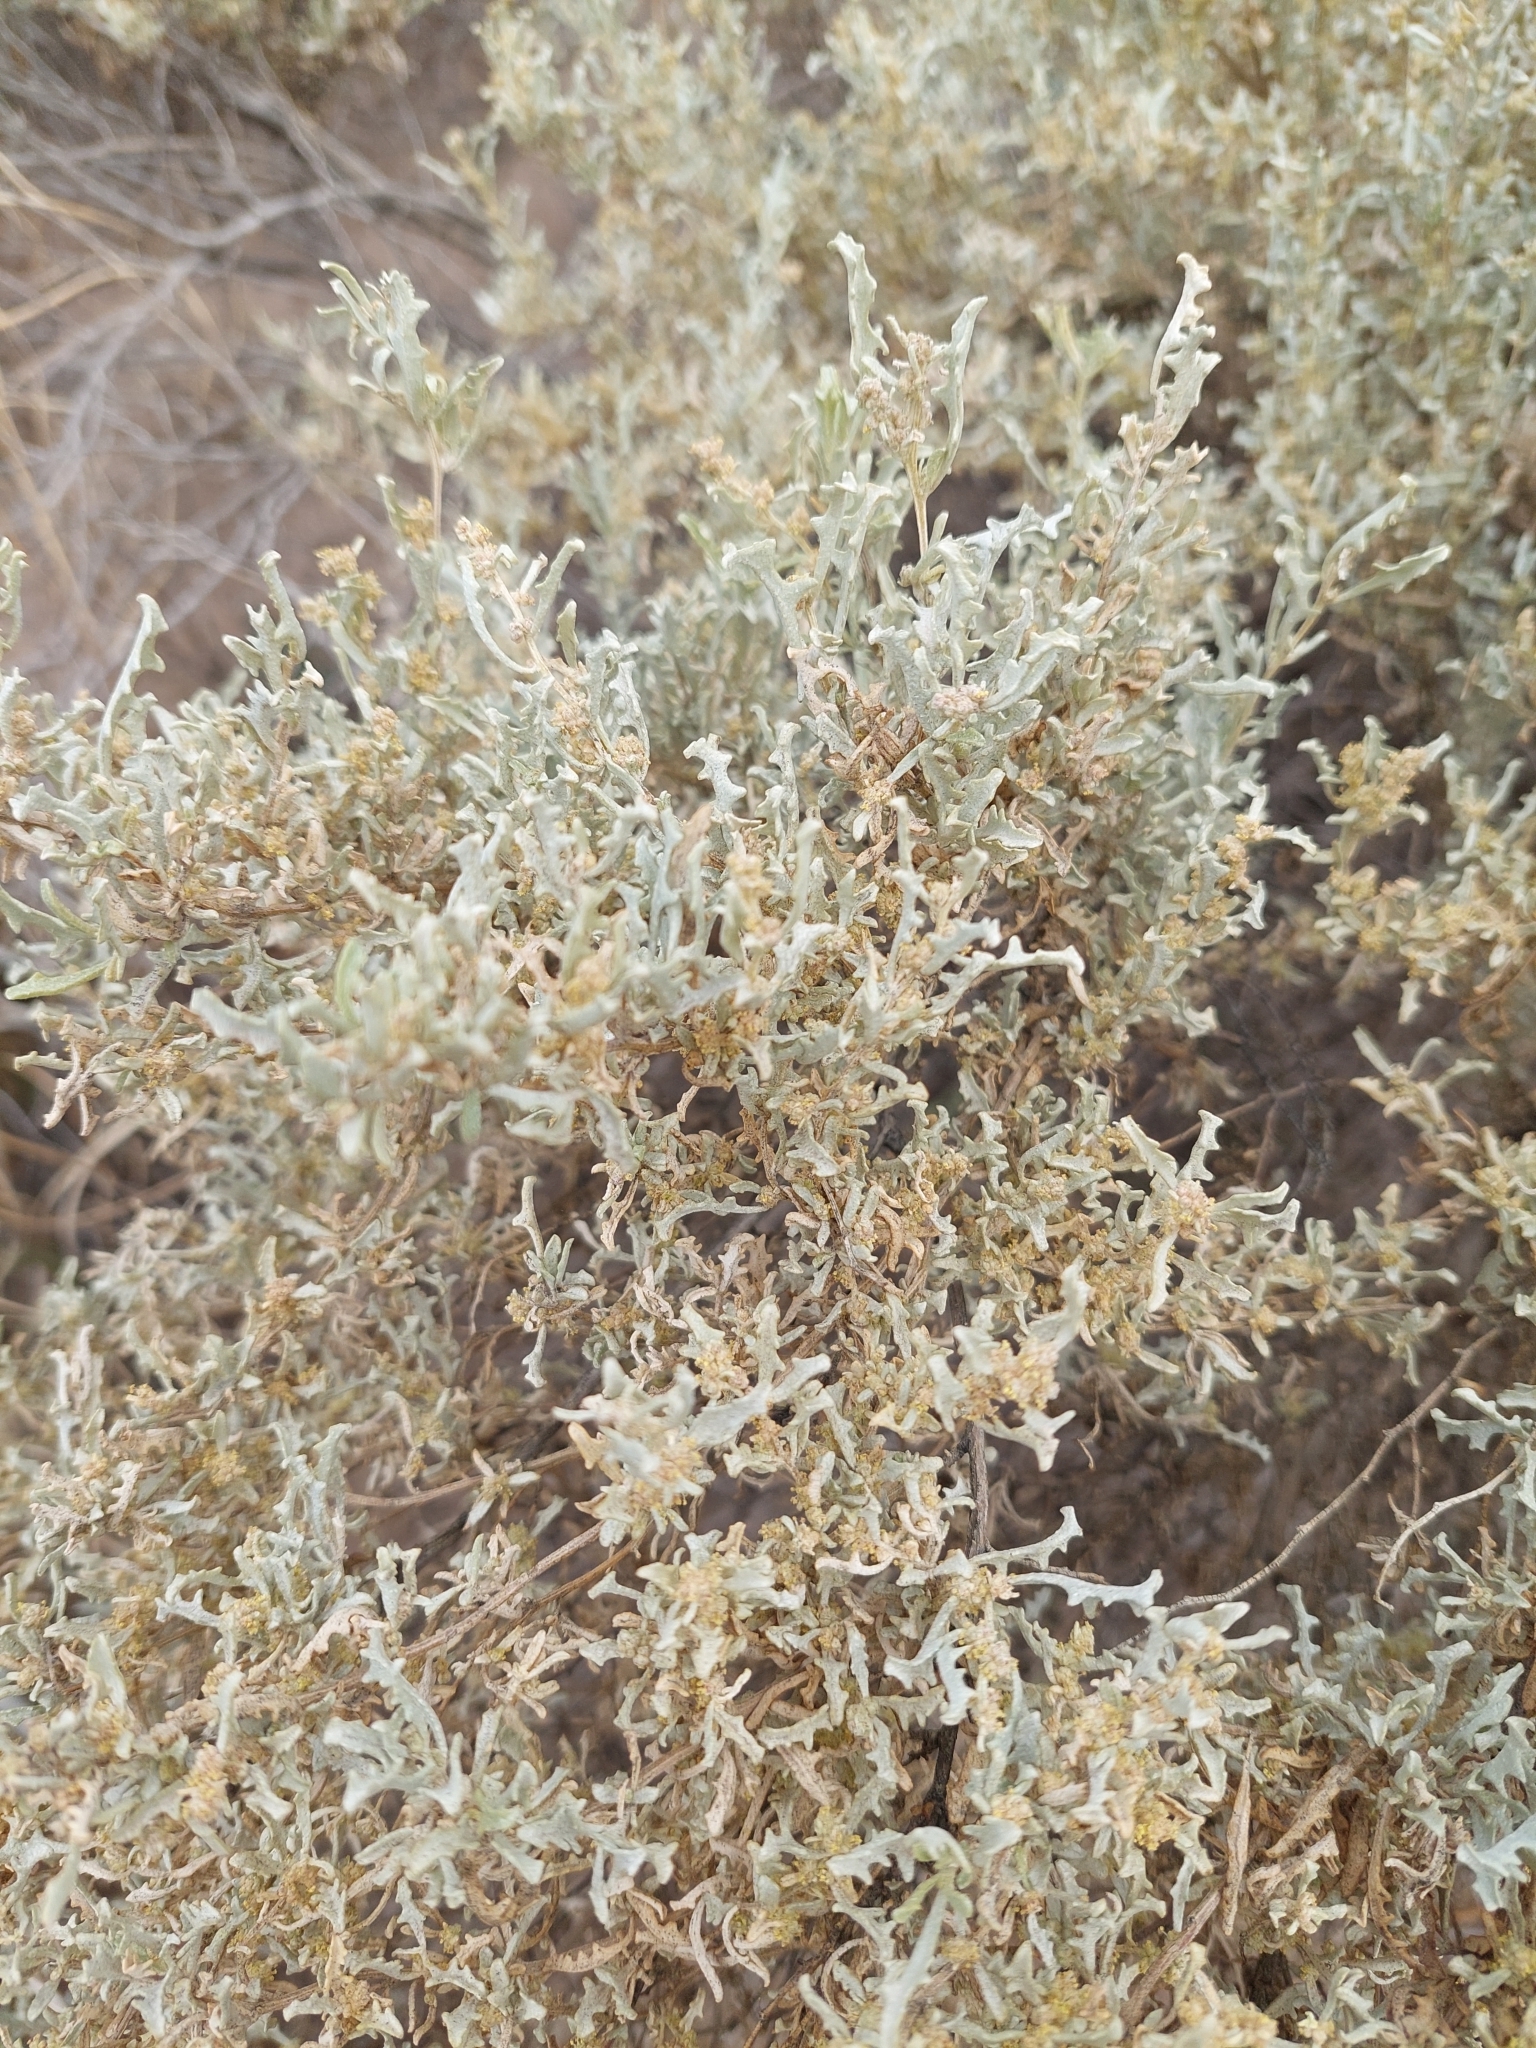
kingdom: Plantae
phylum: Tracheophyta
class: Magnoliopsida
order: Caryophyllales
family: Amaranthaceae
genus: Atriplex
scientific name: Atriplex lampa
